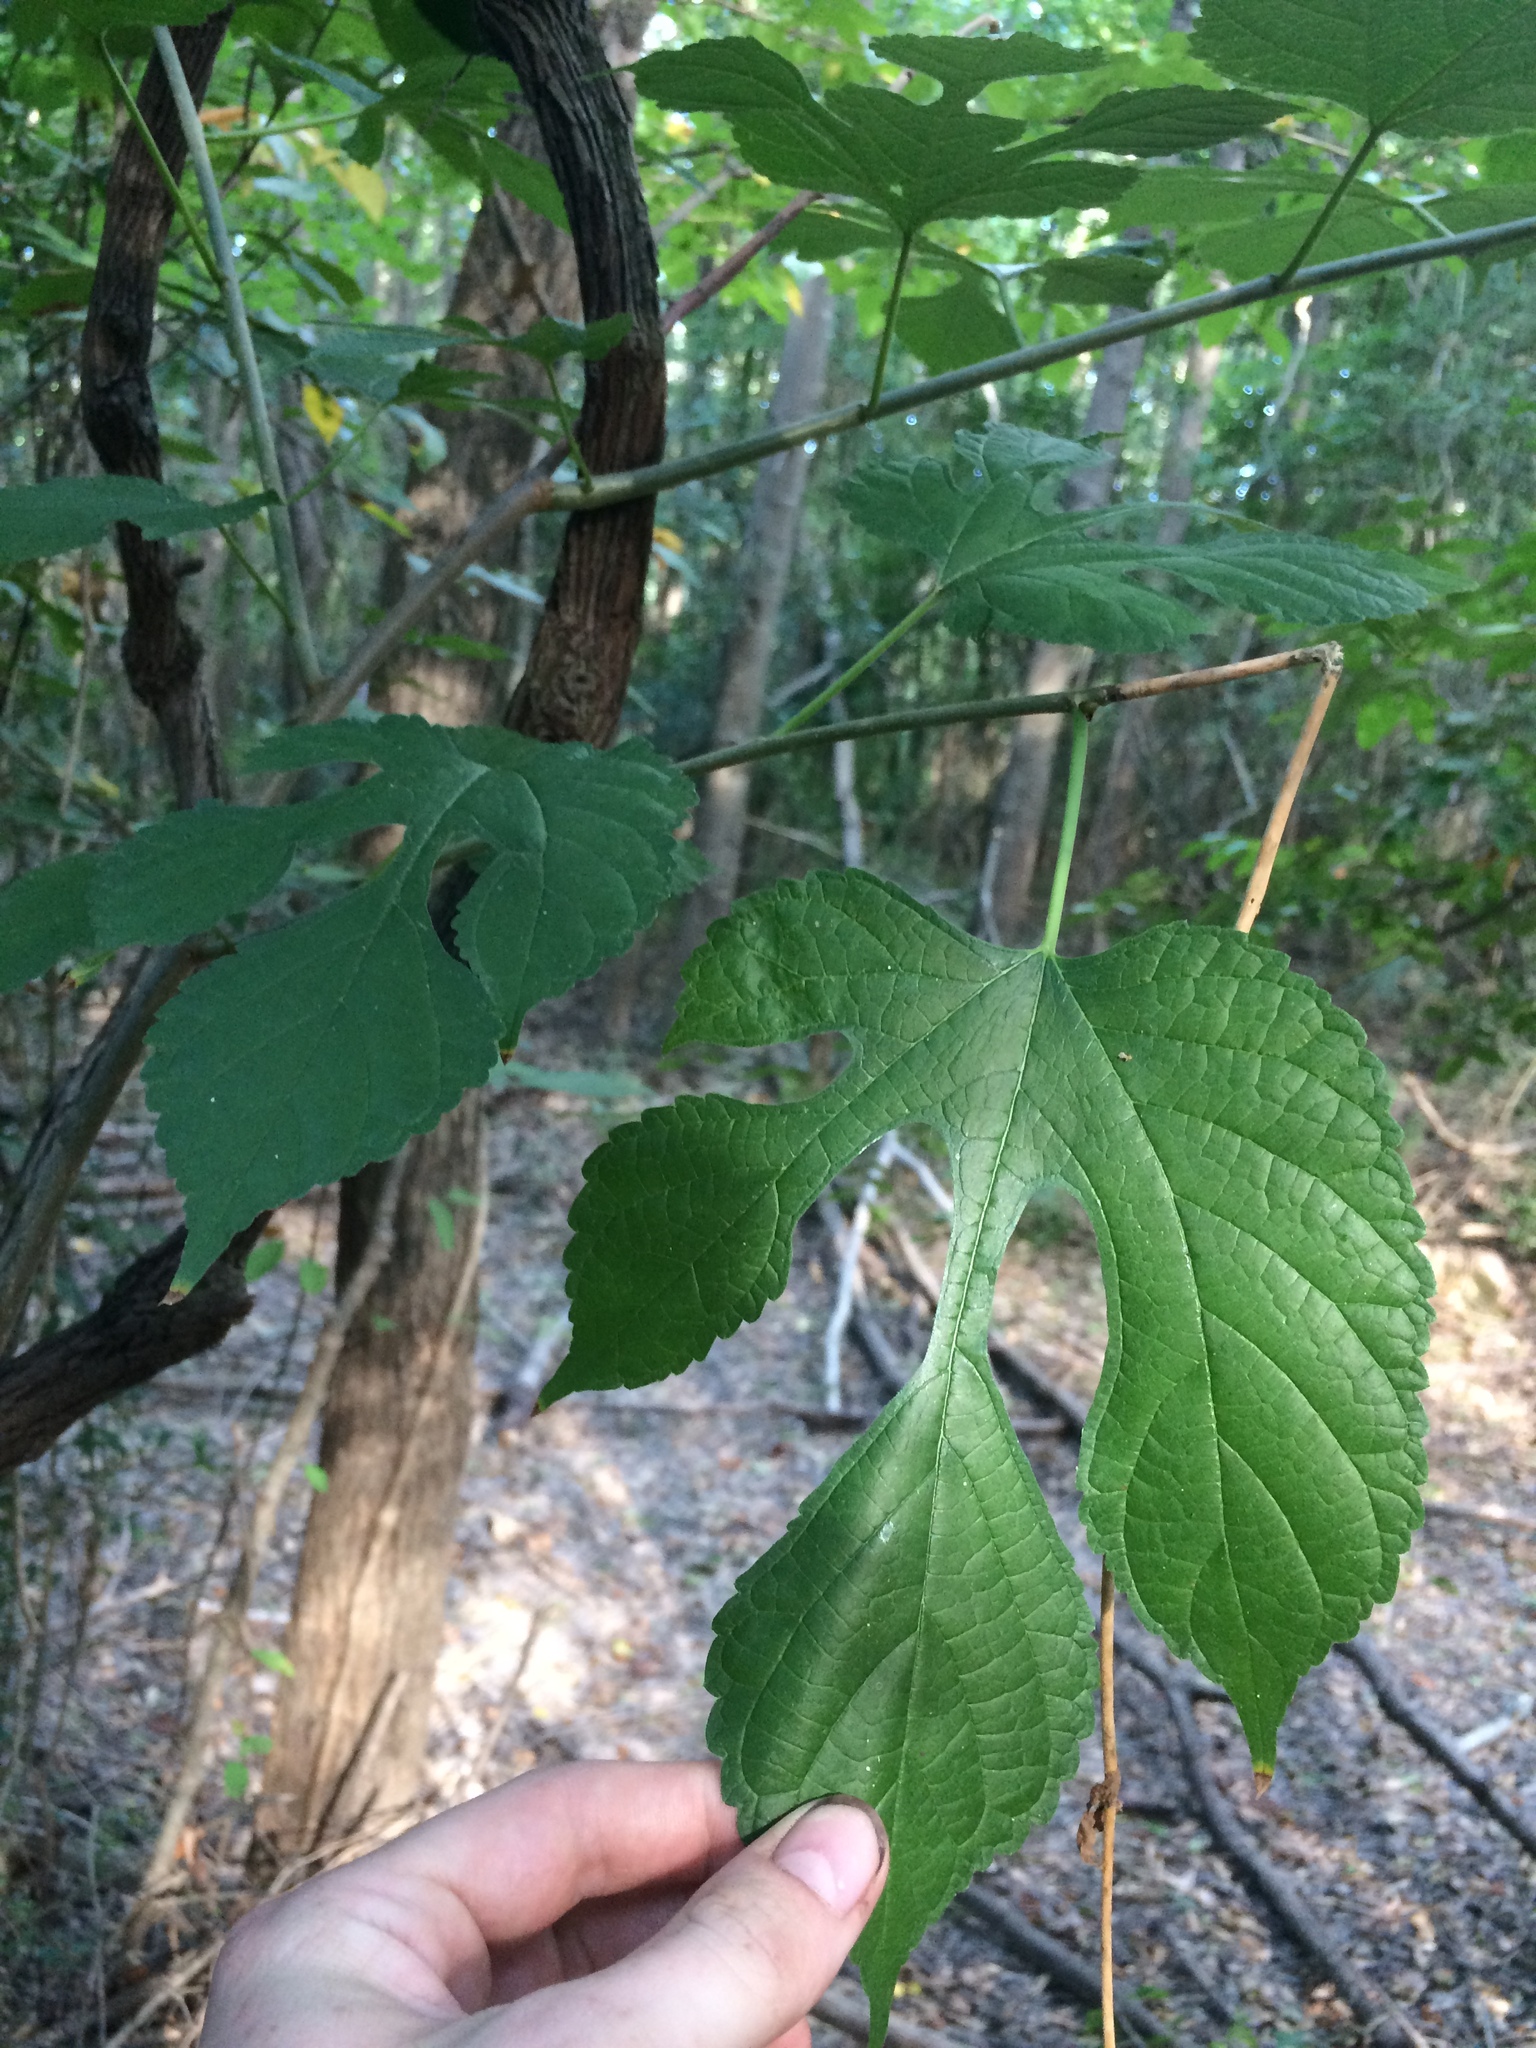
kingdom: Plantae
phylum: Tracheophyta
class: Magnoliopsida
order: Rosales
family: Moraceae
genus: Morus
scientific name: Morus rubra
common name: Red mulberry
